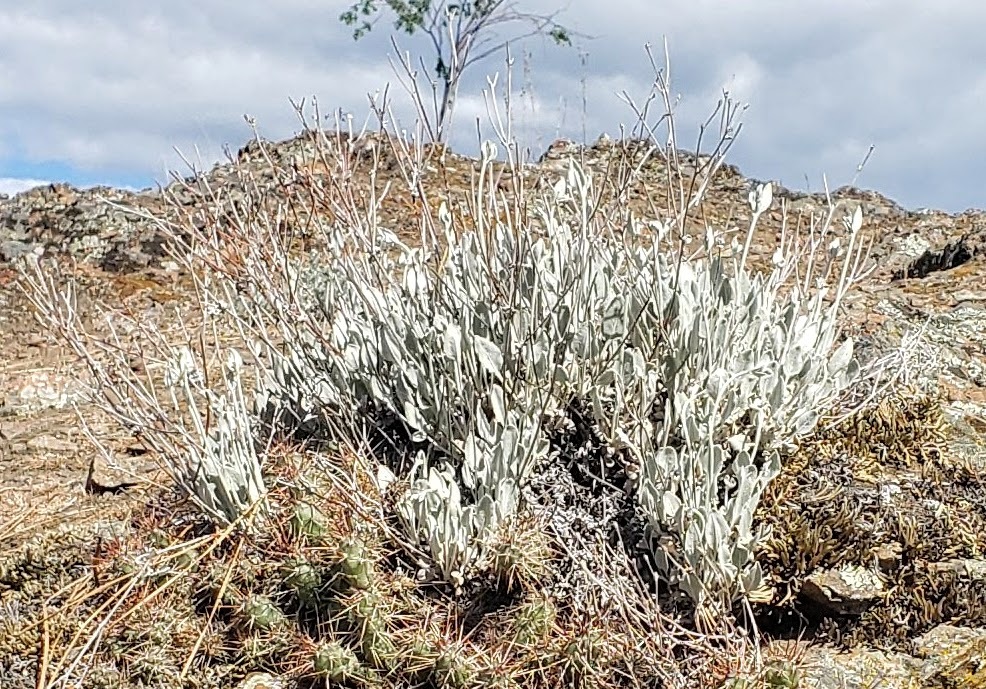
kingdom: Plantae
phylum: Tracheophyta
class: Magnoliopsida
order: Caryophyllales
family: Polygonaceae
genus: Eriogonum
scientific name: Eriogonum niveum
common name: Snow wild buckwheat
